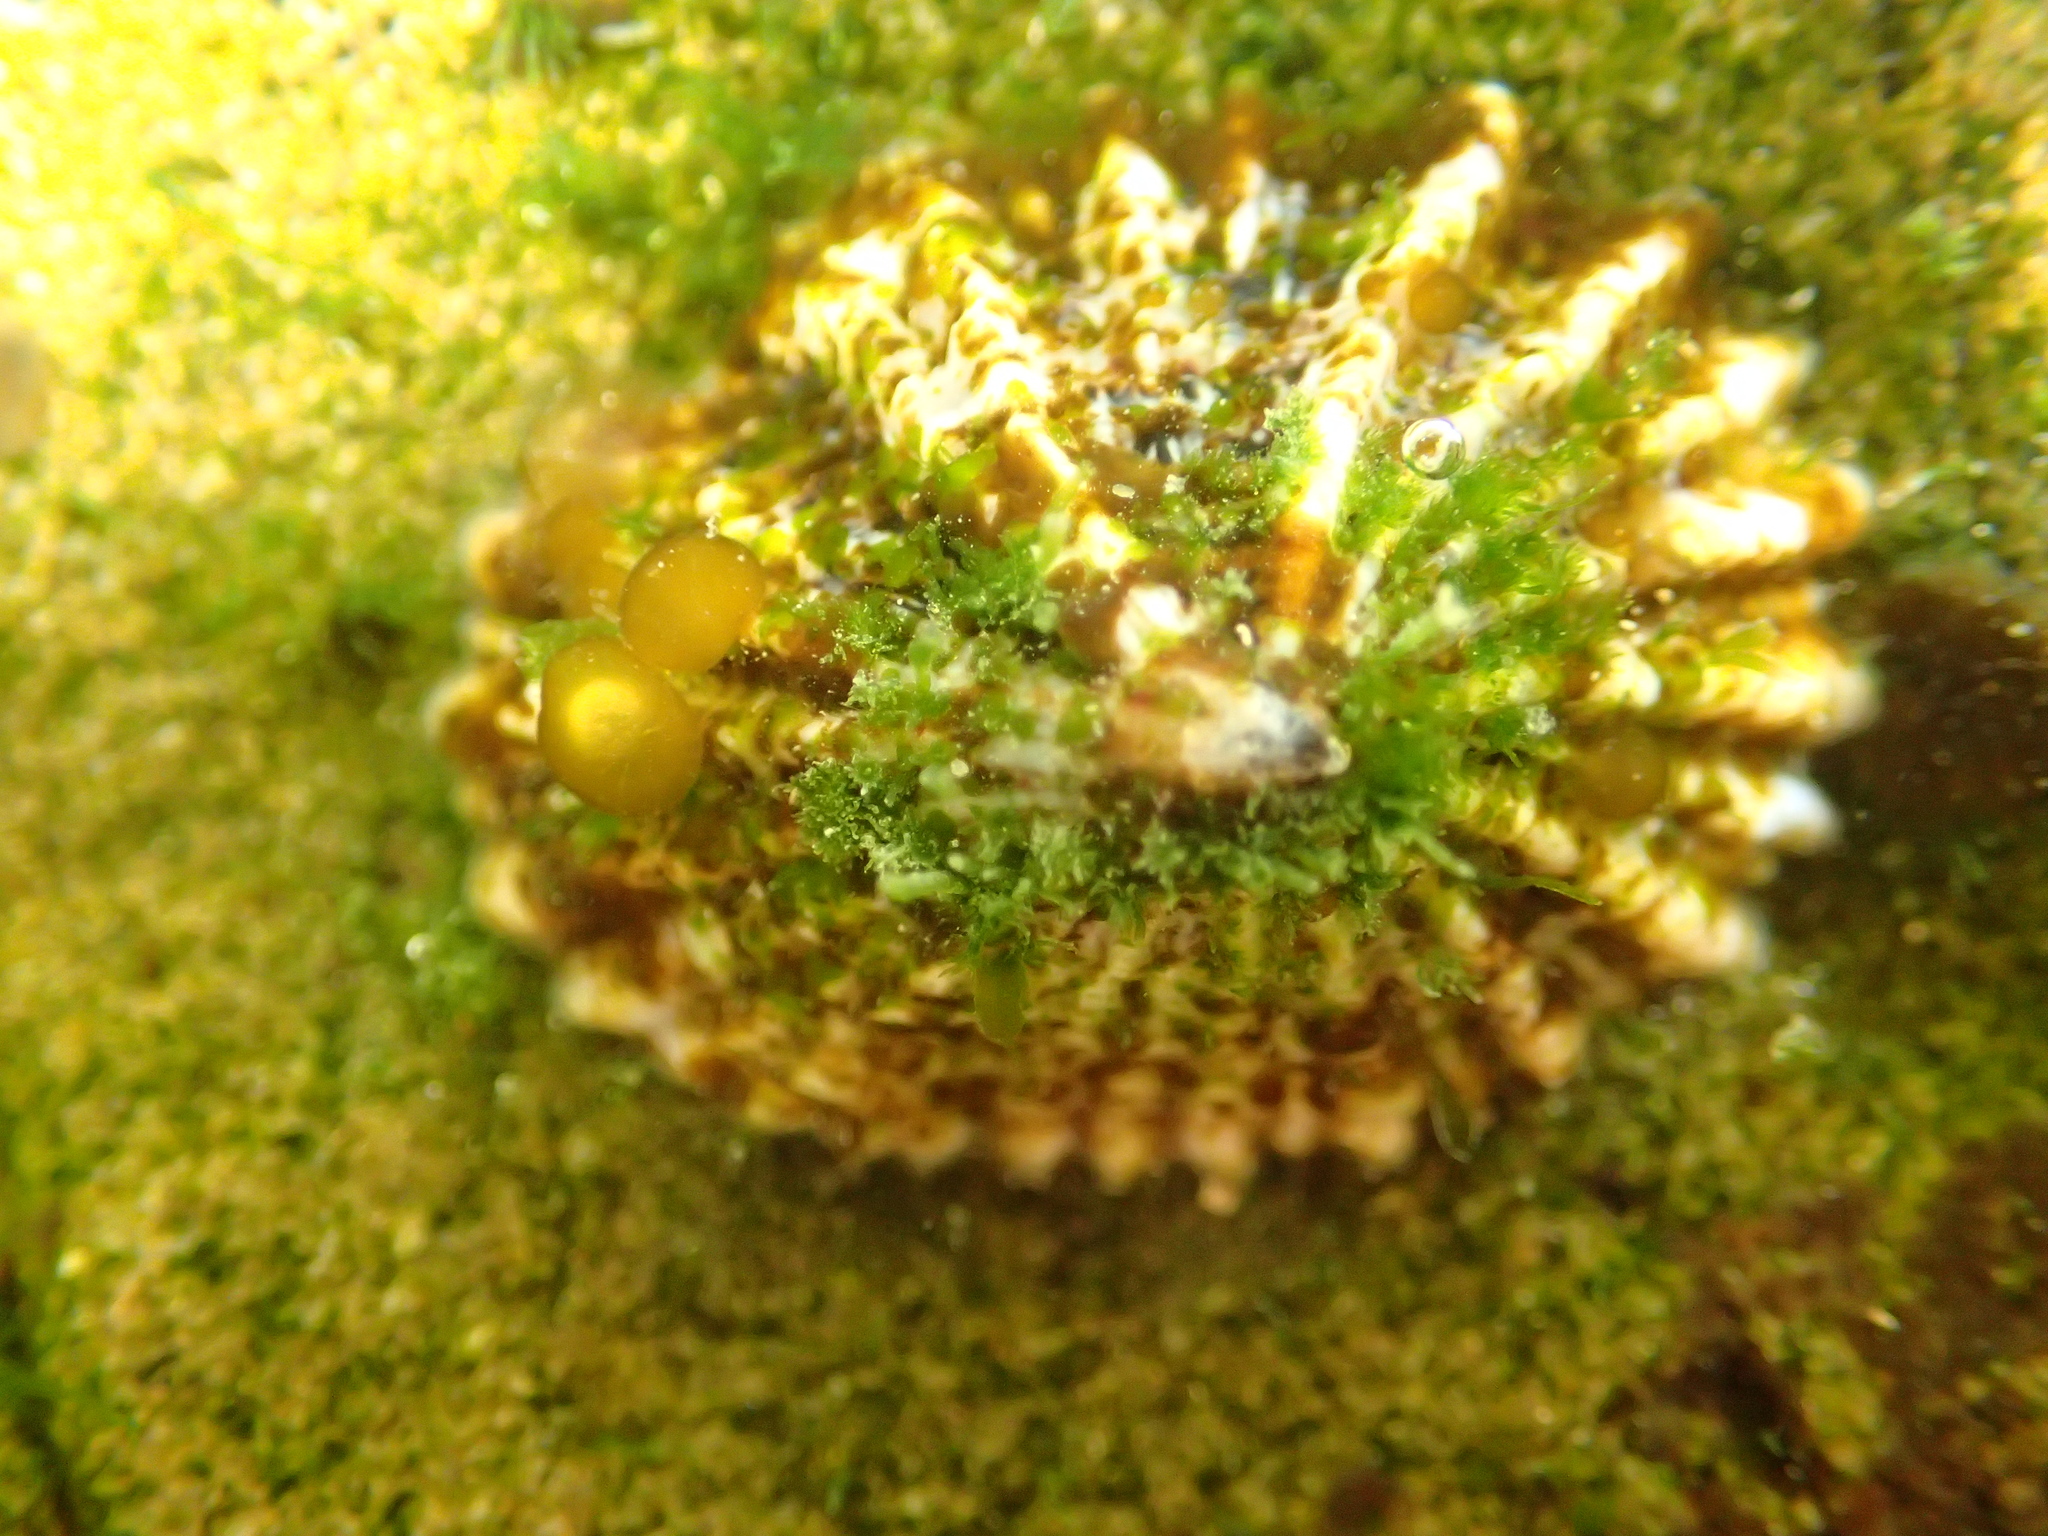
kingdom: Animalia
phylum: Mollusca
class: Gastropoda
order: Siphonariida
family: Siphonariidae
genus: Siphonaria
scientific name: Siphonaria australis
